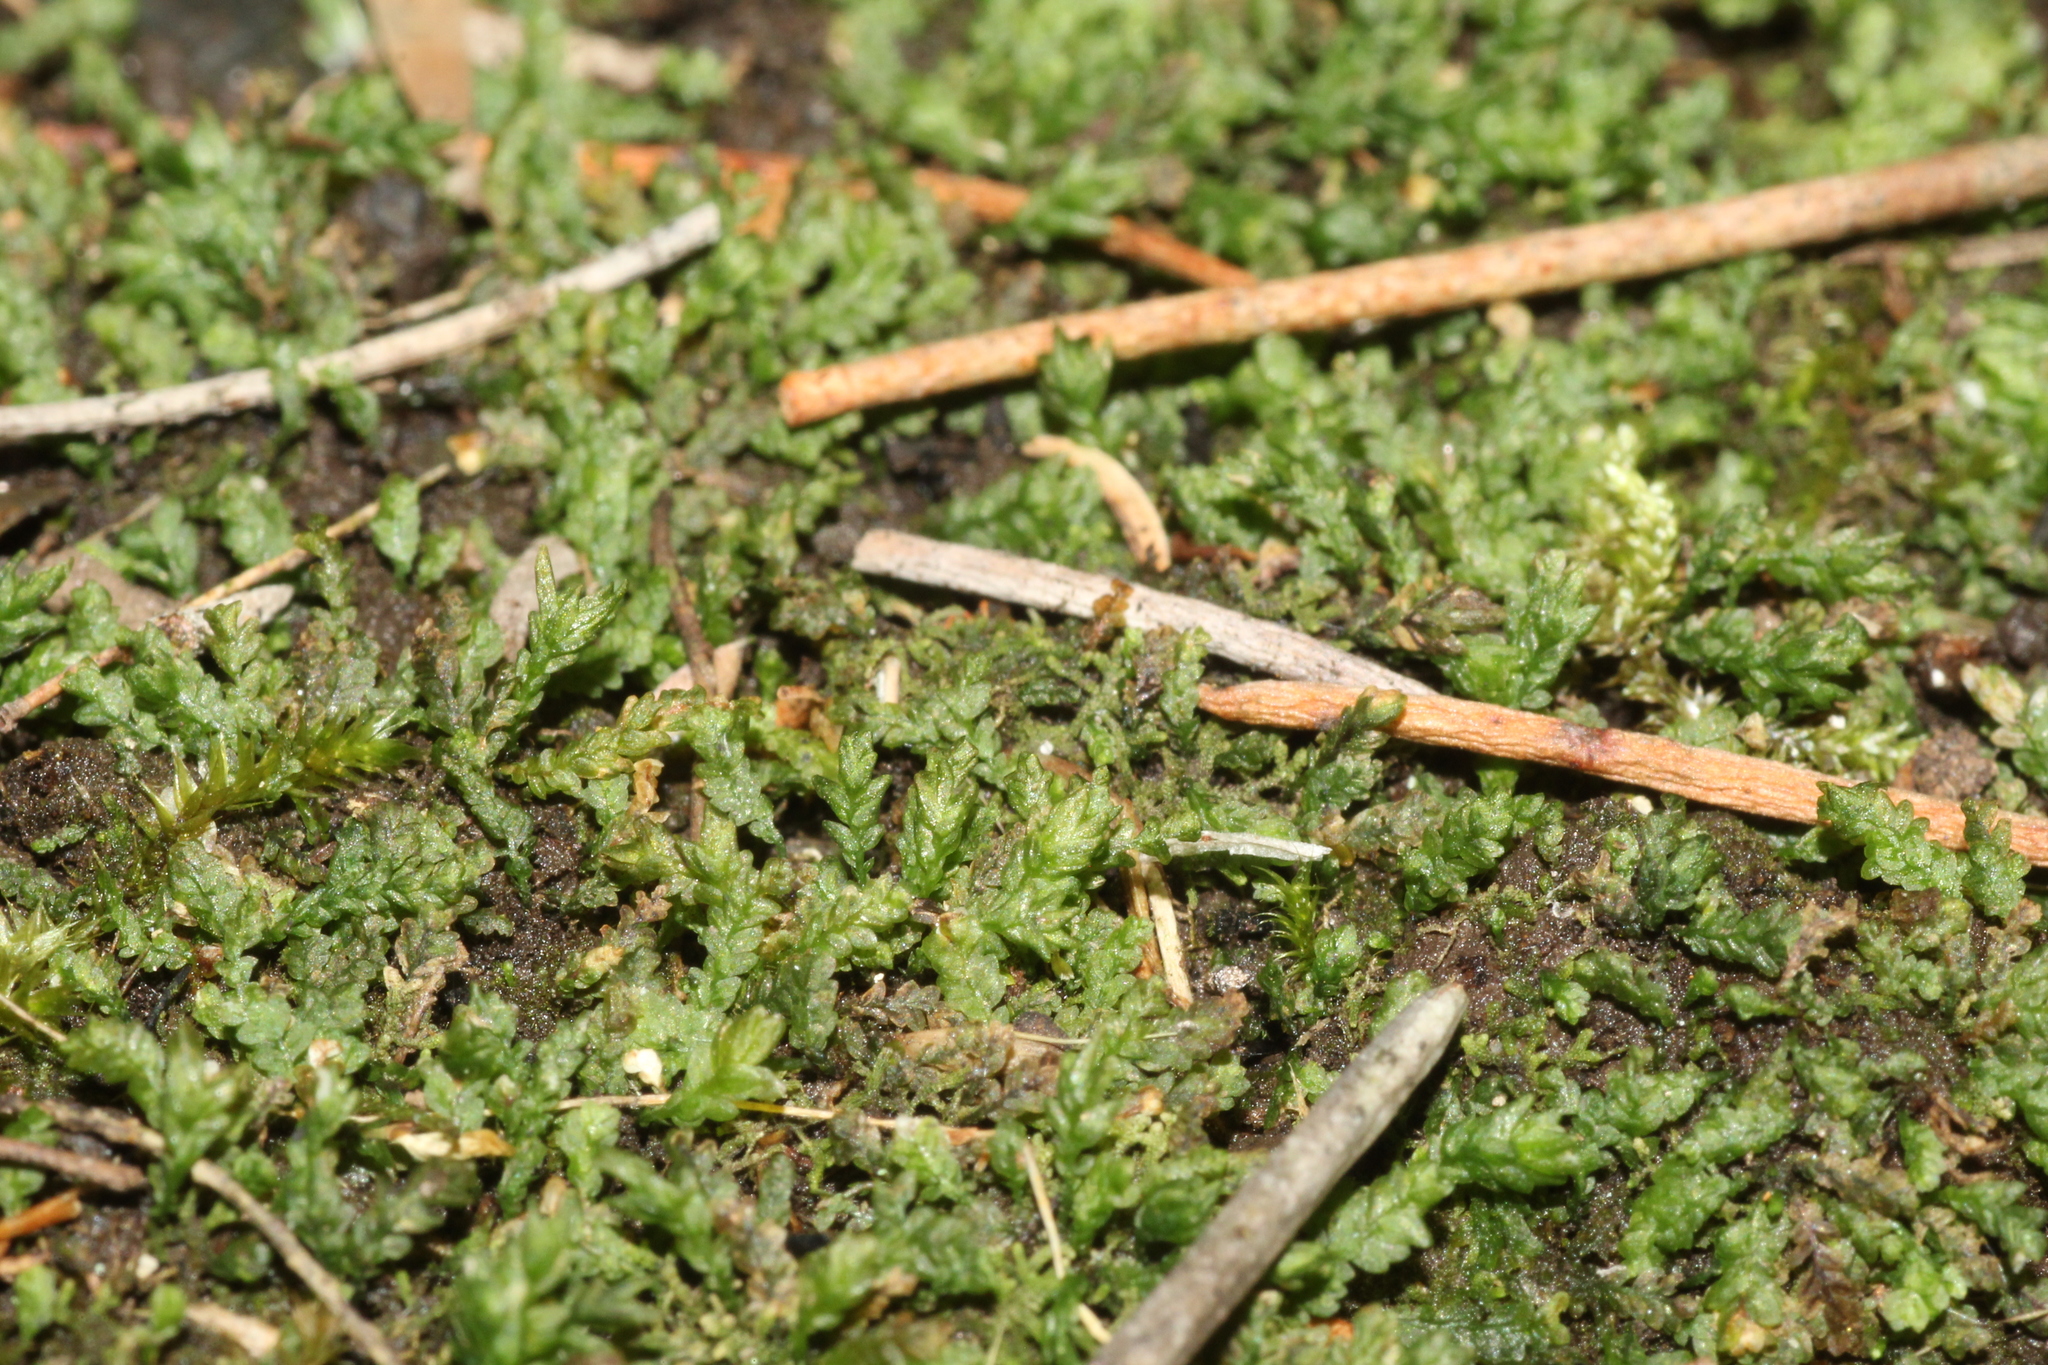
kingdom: Plantae
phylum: Bryophyta
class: Bryopsida
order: Pottiales
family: Mitteniaceae
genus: Mittenia
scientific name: Mittenia plumula
